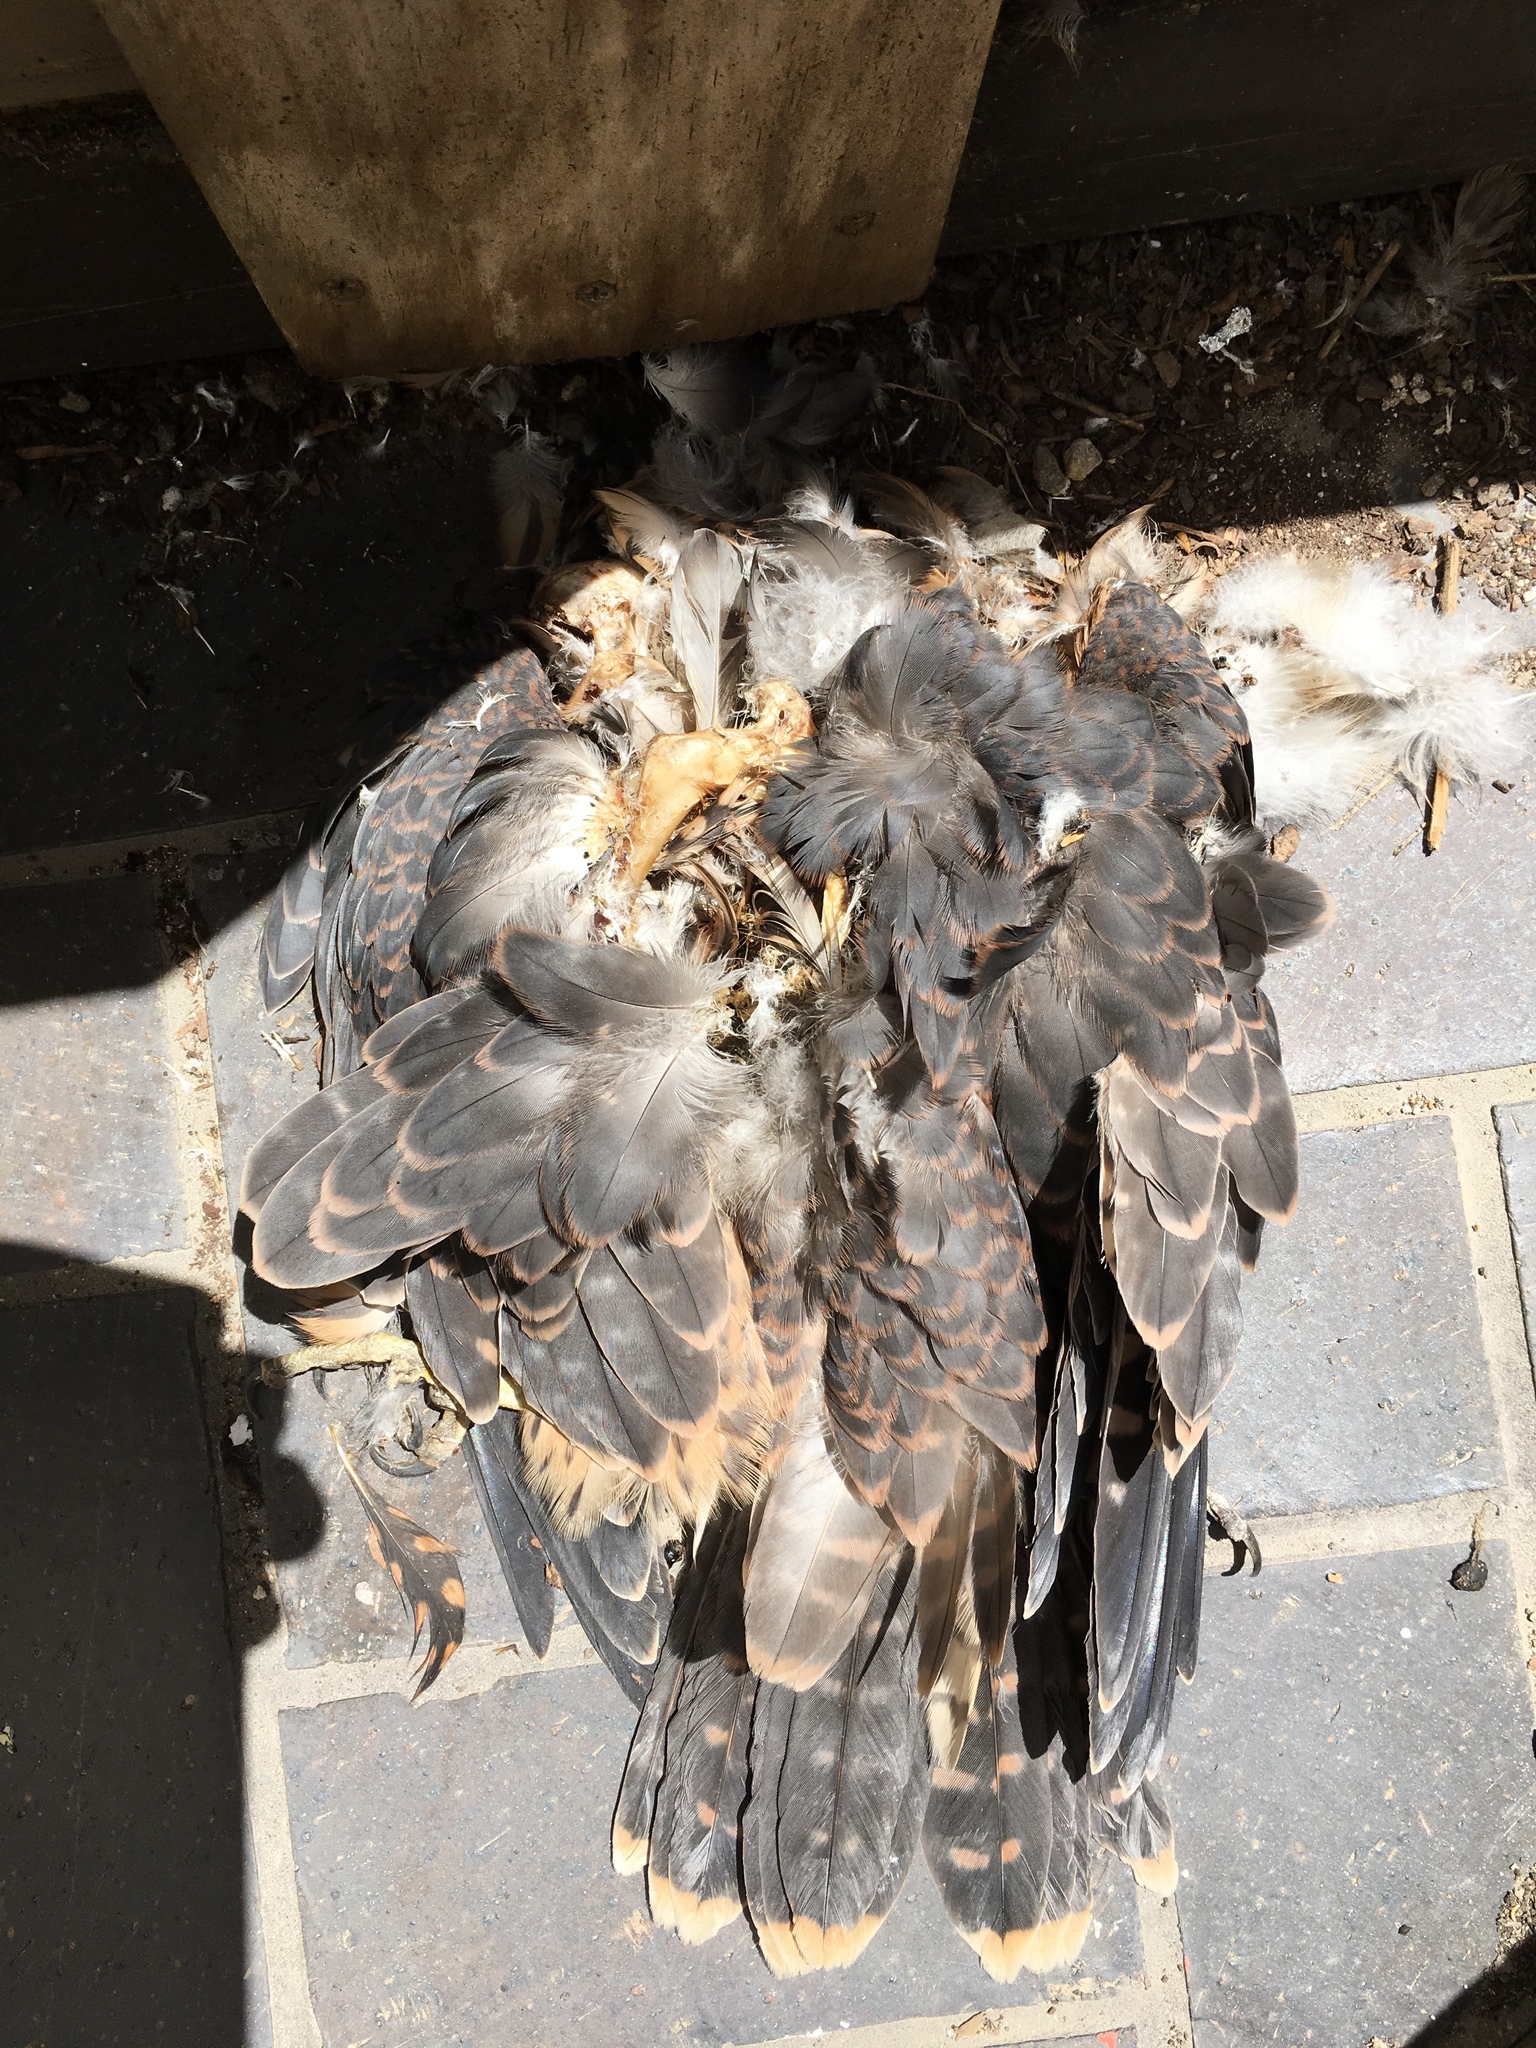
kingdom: Animalia
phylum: Chordata
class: Aves
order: Falconiformes
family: Falconidae
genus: Falco
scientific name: Falco peregrinus
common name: Peregrine falcon
